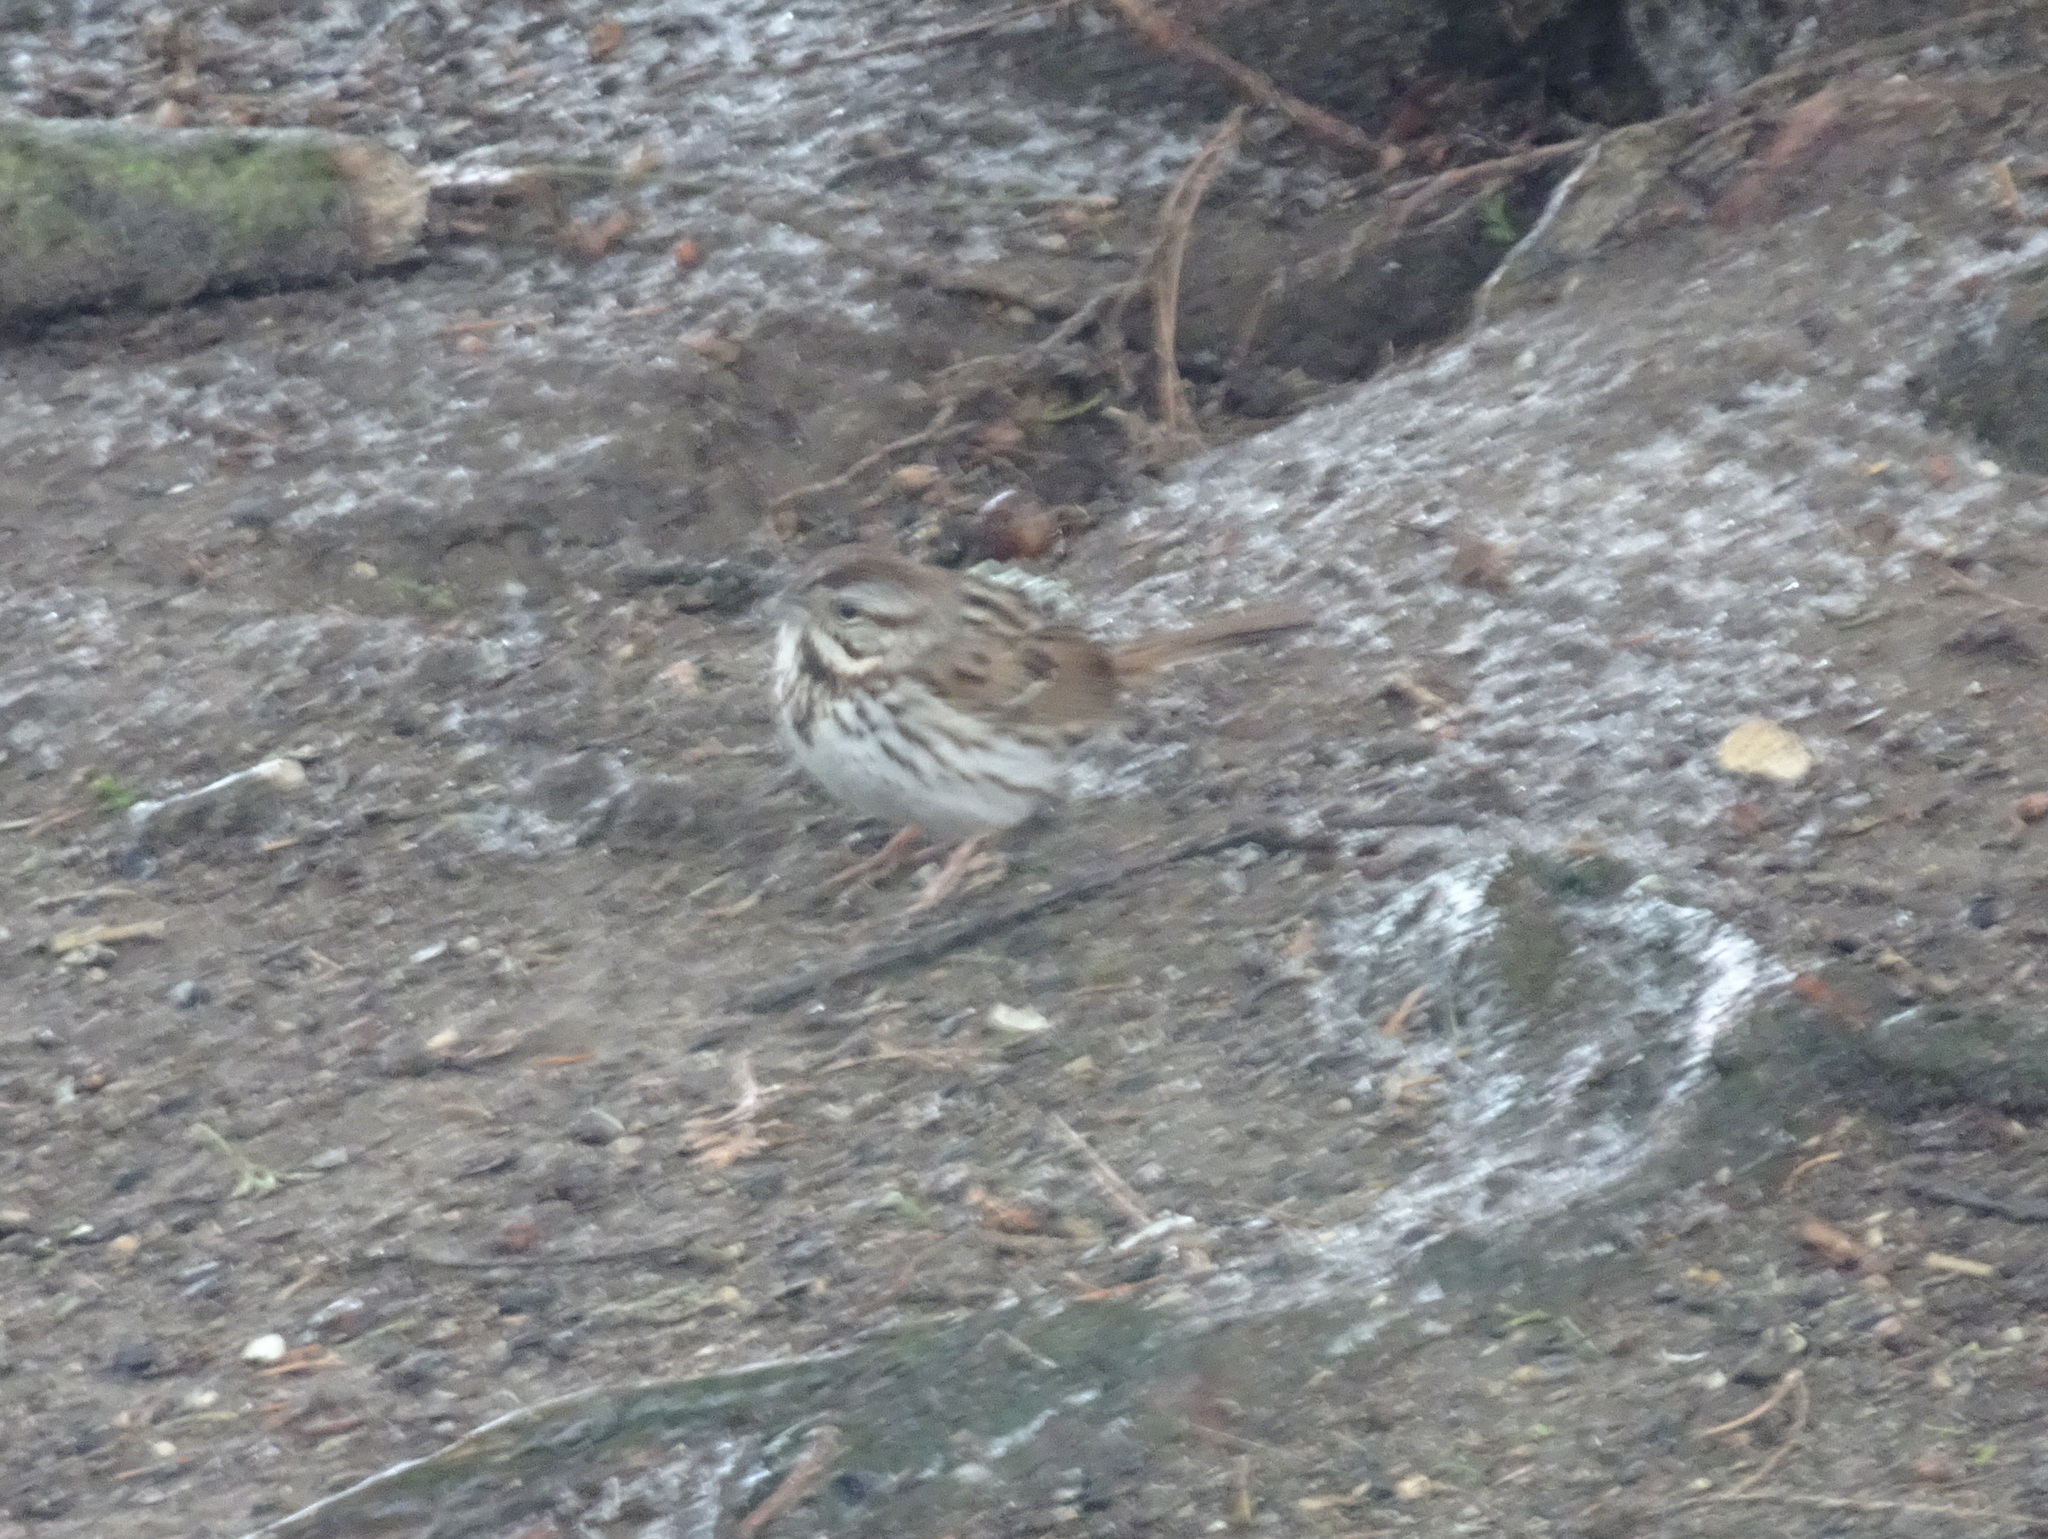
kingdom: Animalia
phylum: Chordata
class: Aves
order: Passeriformes
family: Passerellidae
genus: Melospiza
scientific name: Melospiza melodia
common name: Song sparrow
